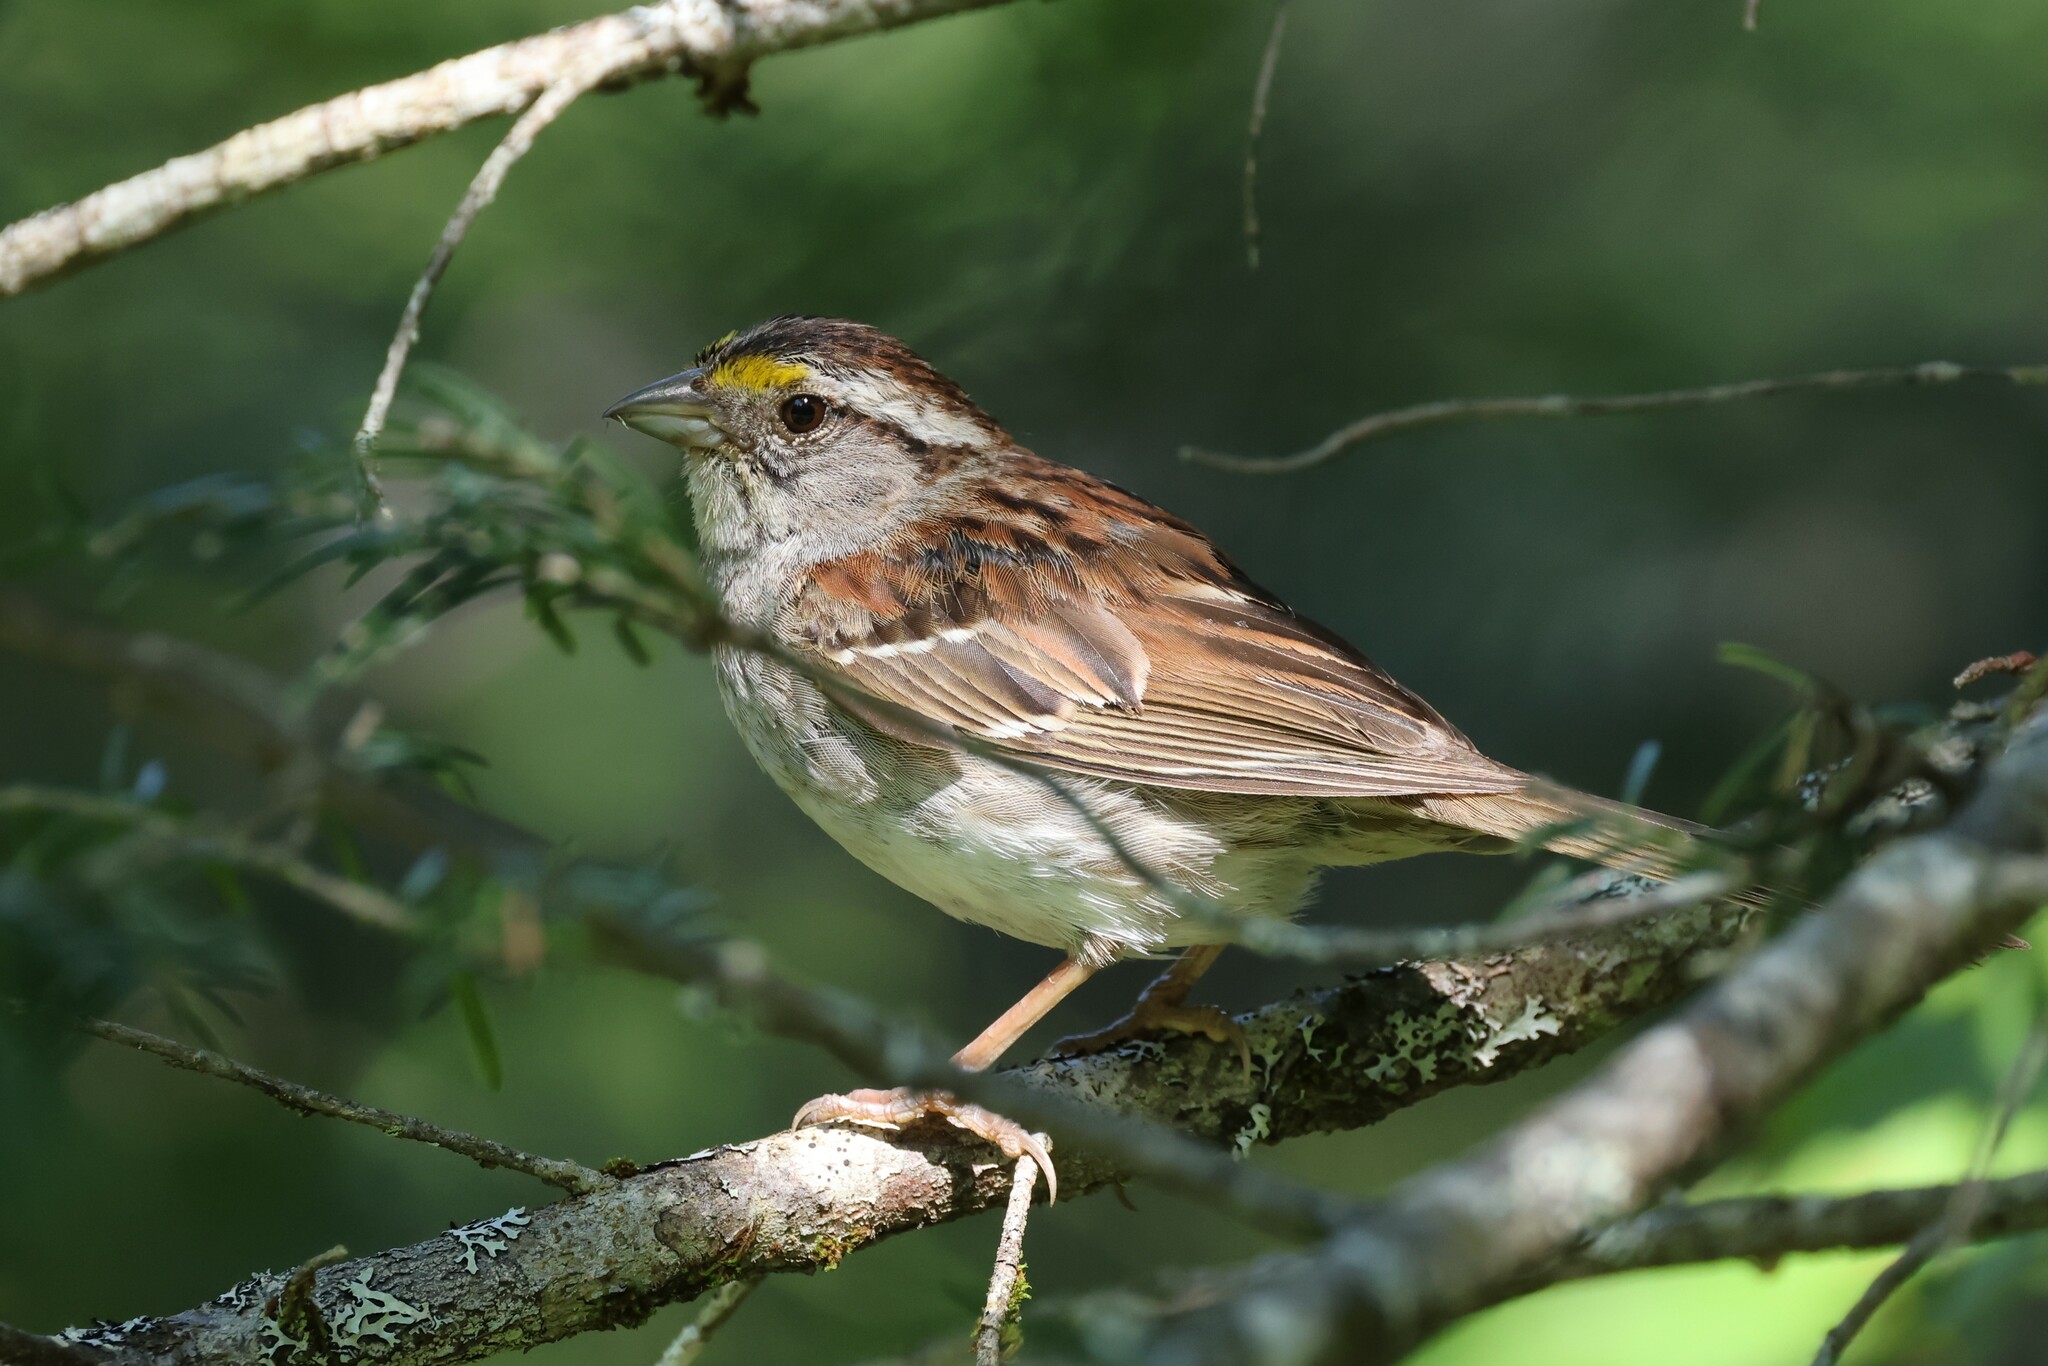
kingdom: Animalia
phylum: Chordata
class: Aves
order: Passeriformes
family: Passerellidae
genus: Zonotrichia
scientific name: Zonotrichia albicollis
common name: White-throated sparrow
